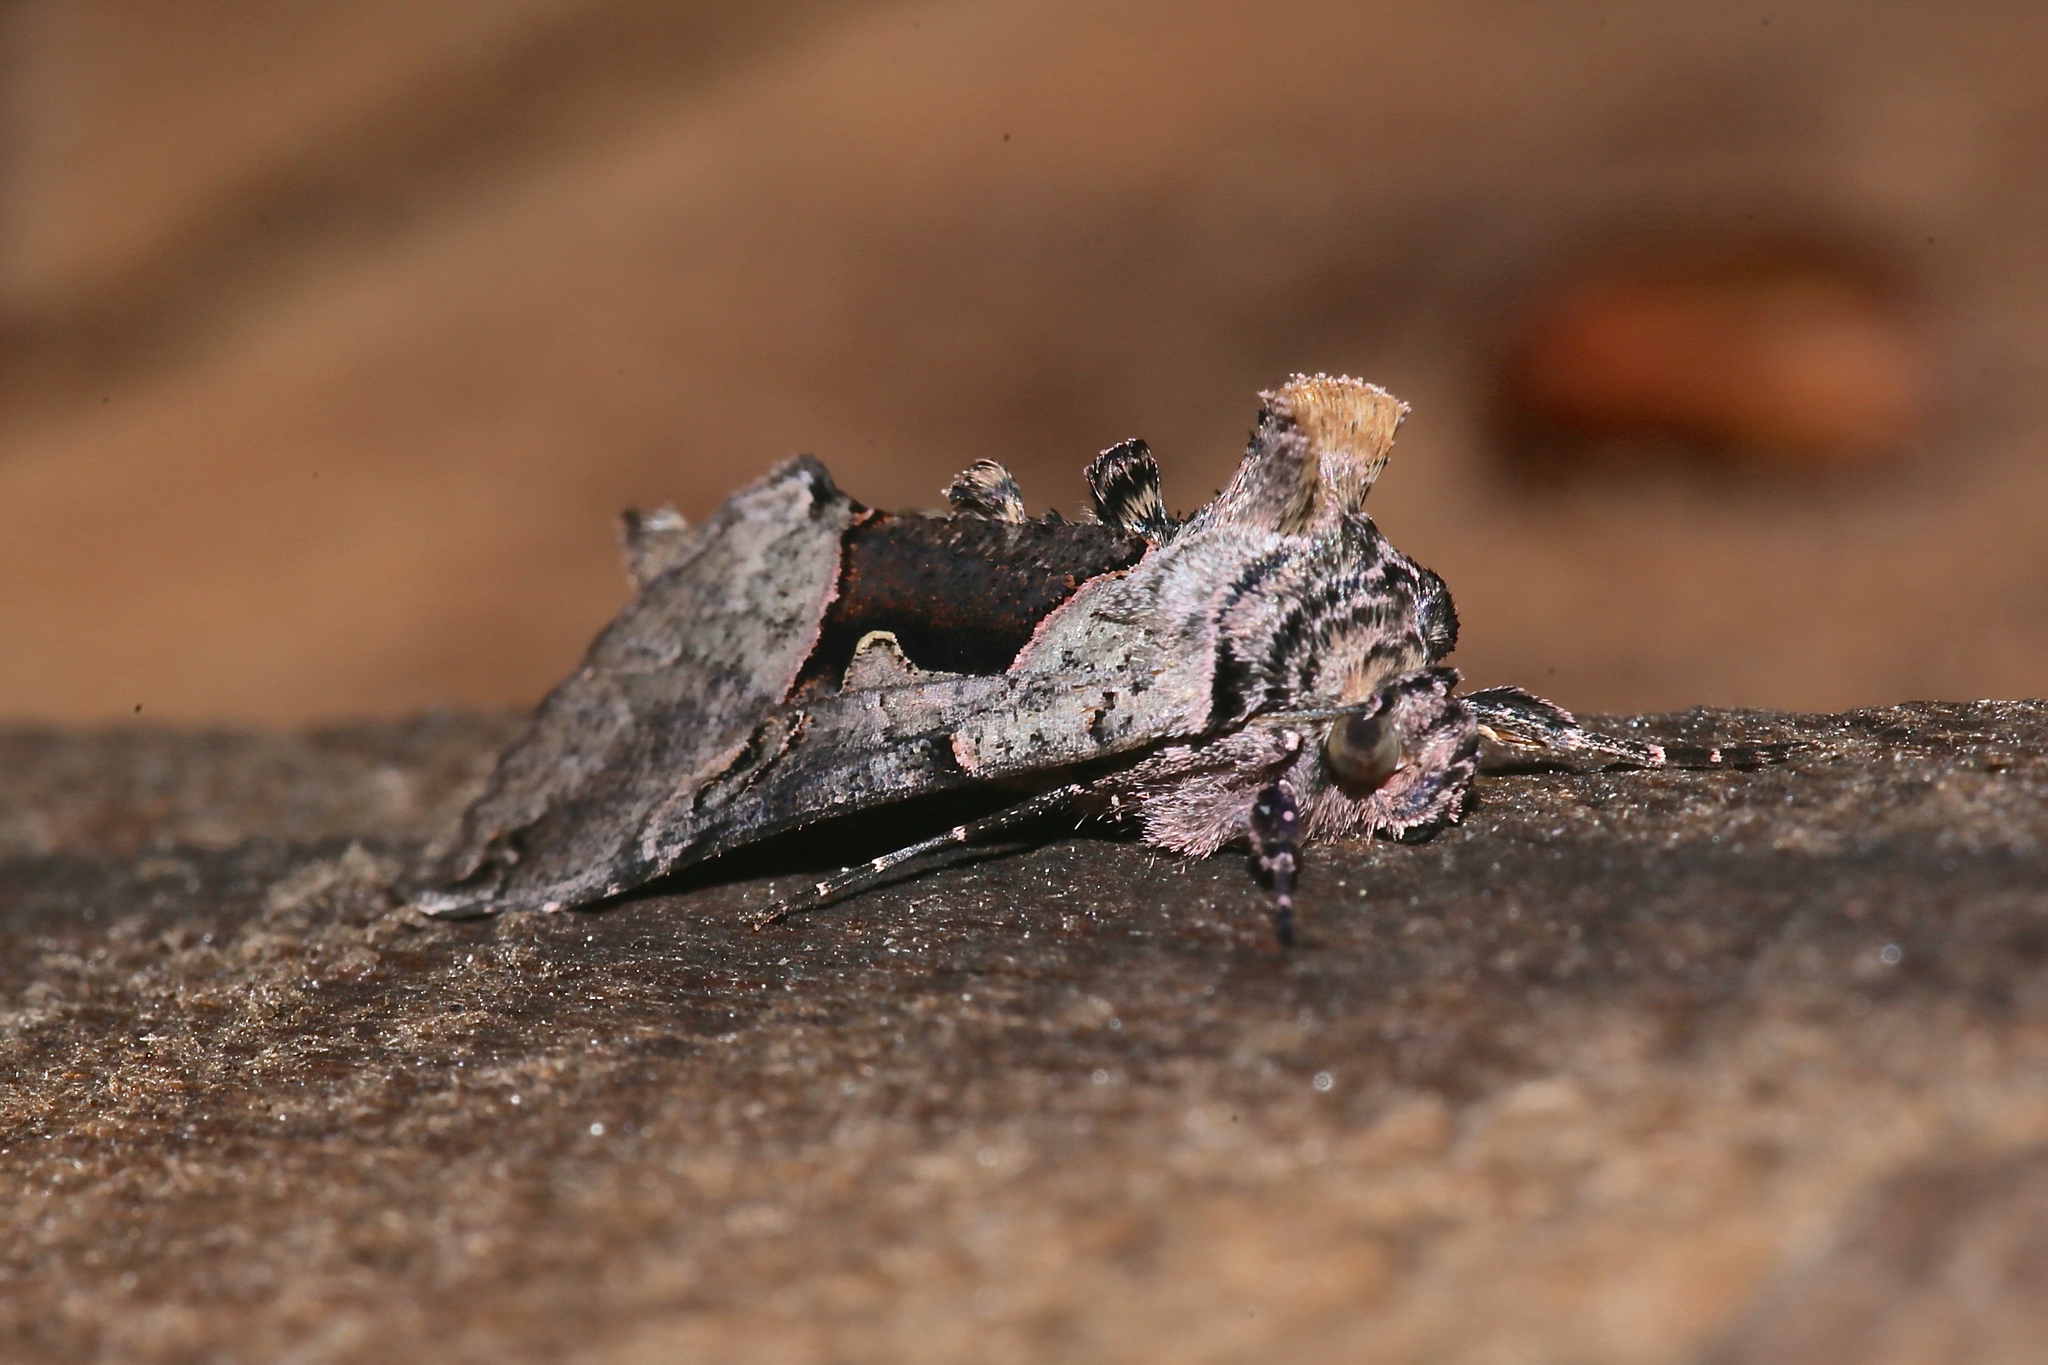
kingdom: Animalia
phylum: Arthropoda
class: Insecta
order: Lepidoptera
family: Noctuidae
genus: Autographa
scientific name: Autographa ampla
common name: Large looper moth
